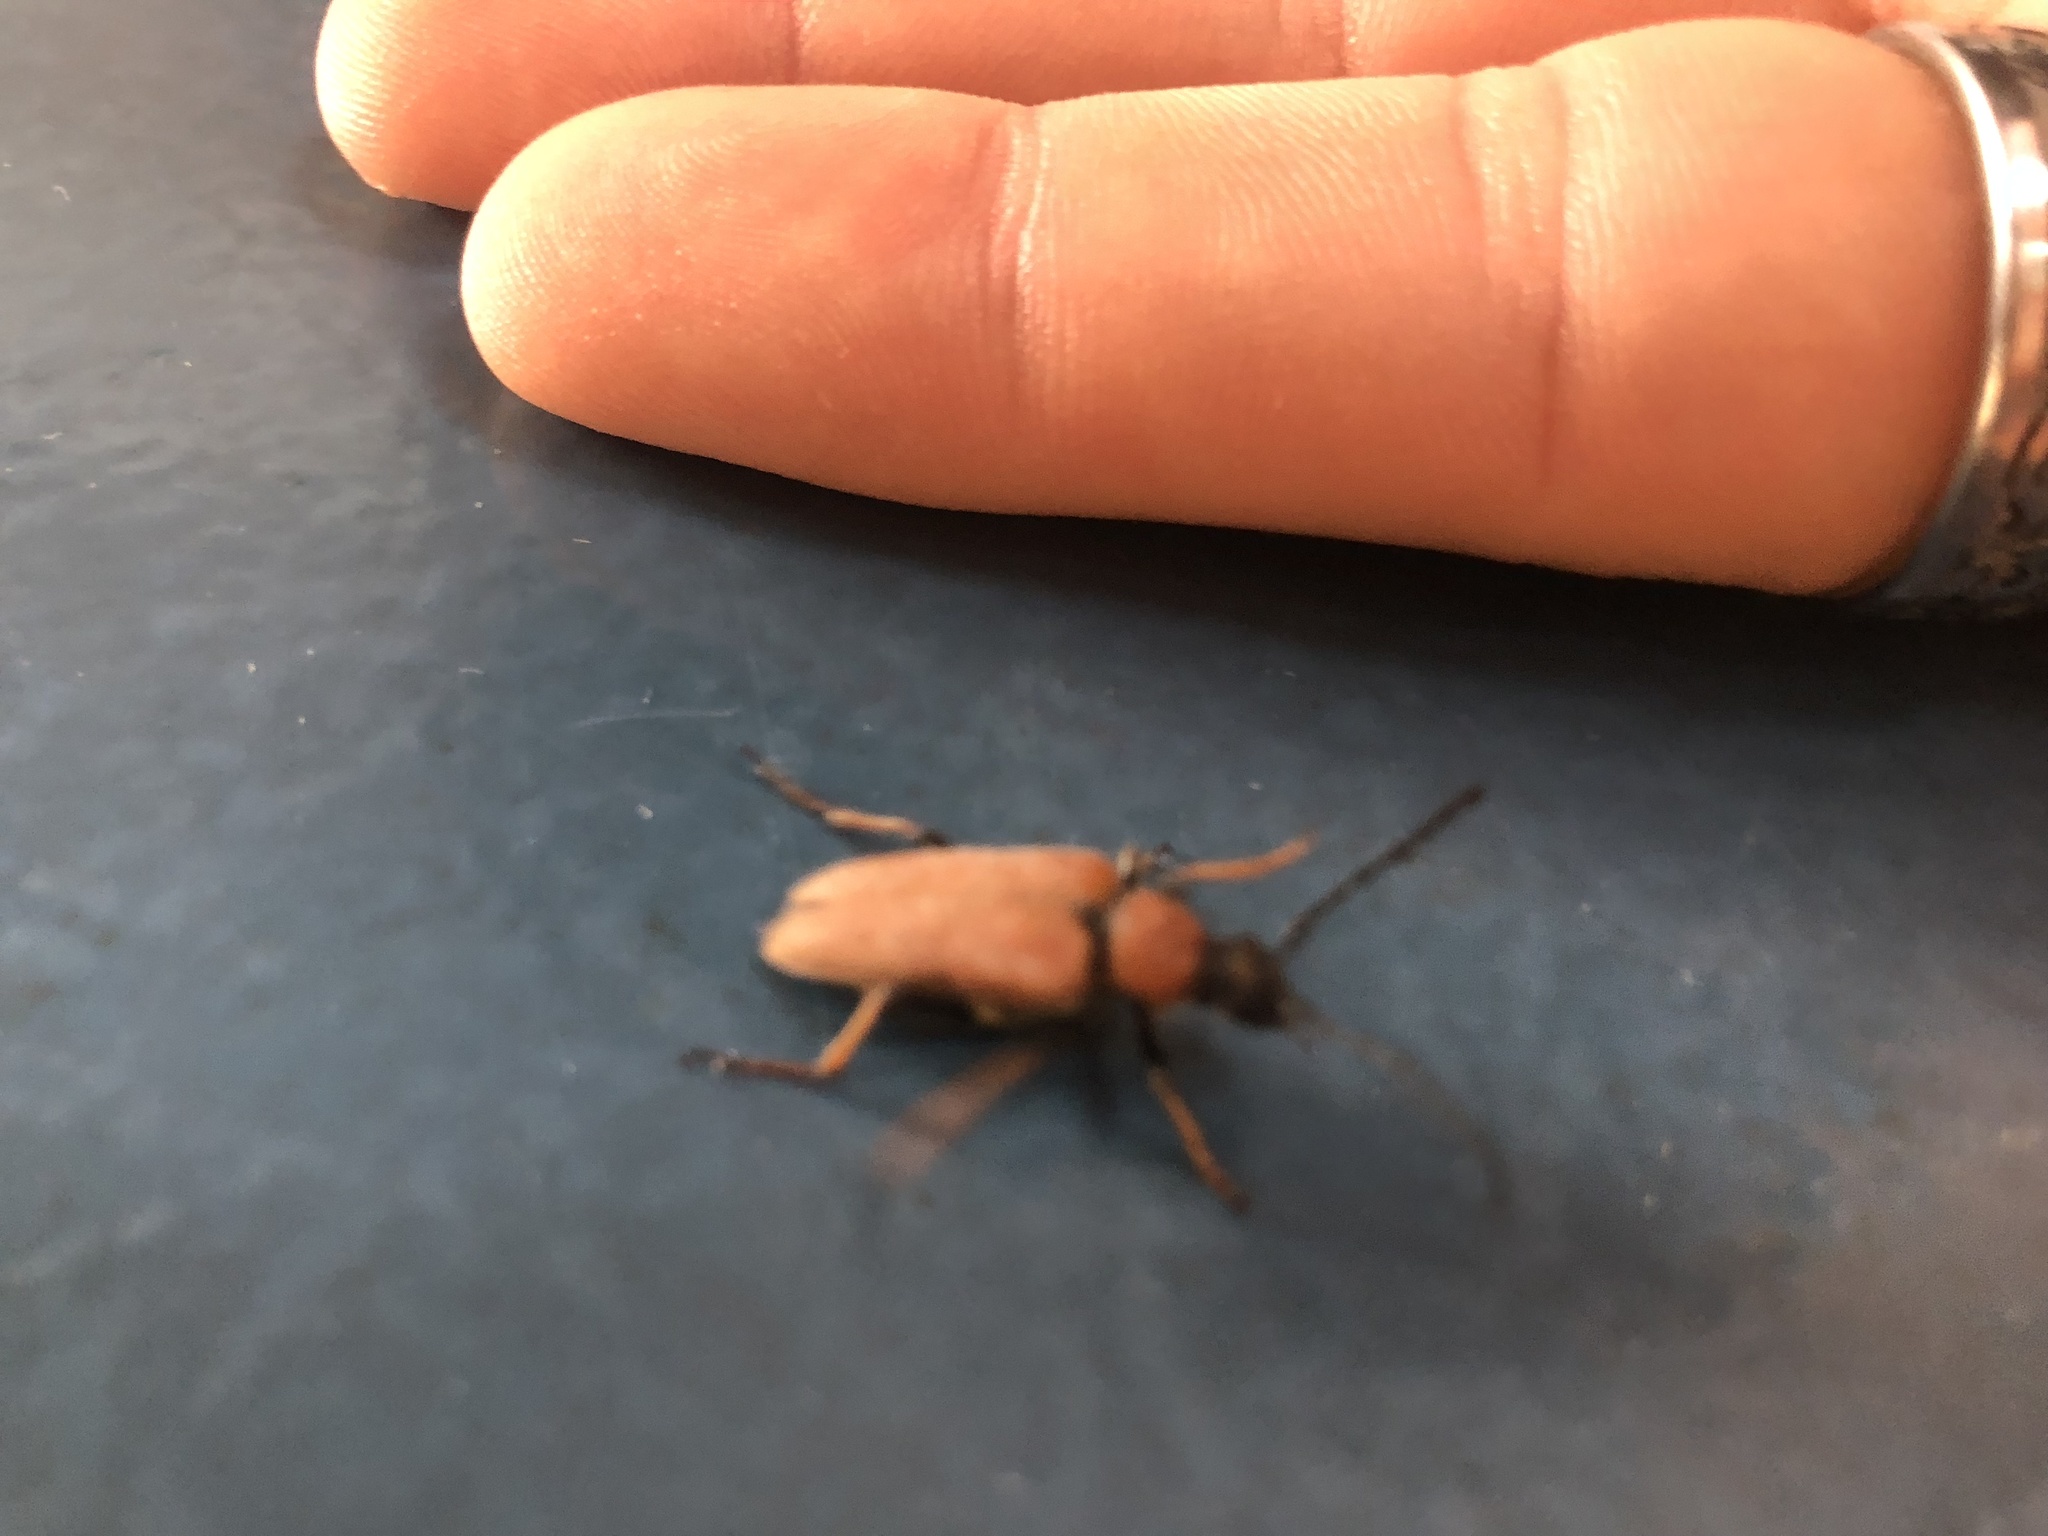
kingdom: Animalia
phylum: Arthropoda
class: Insecta
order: Coleoptera
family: Cerambycidae
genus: Stictoleptura
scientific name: Stictoleptura rubra
